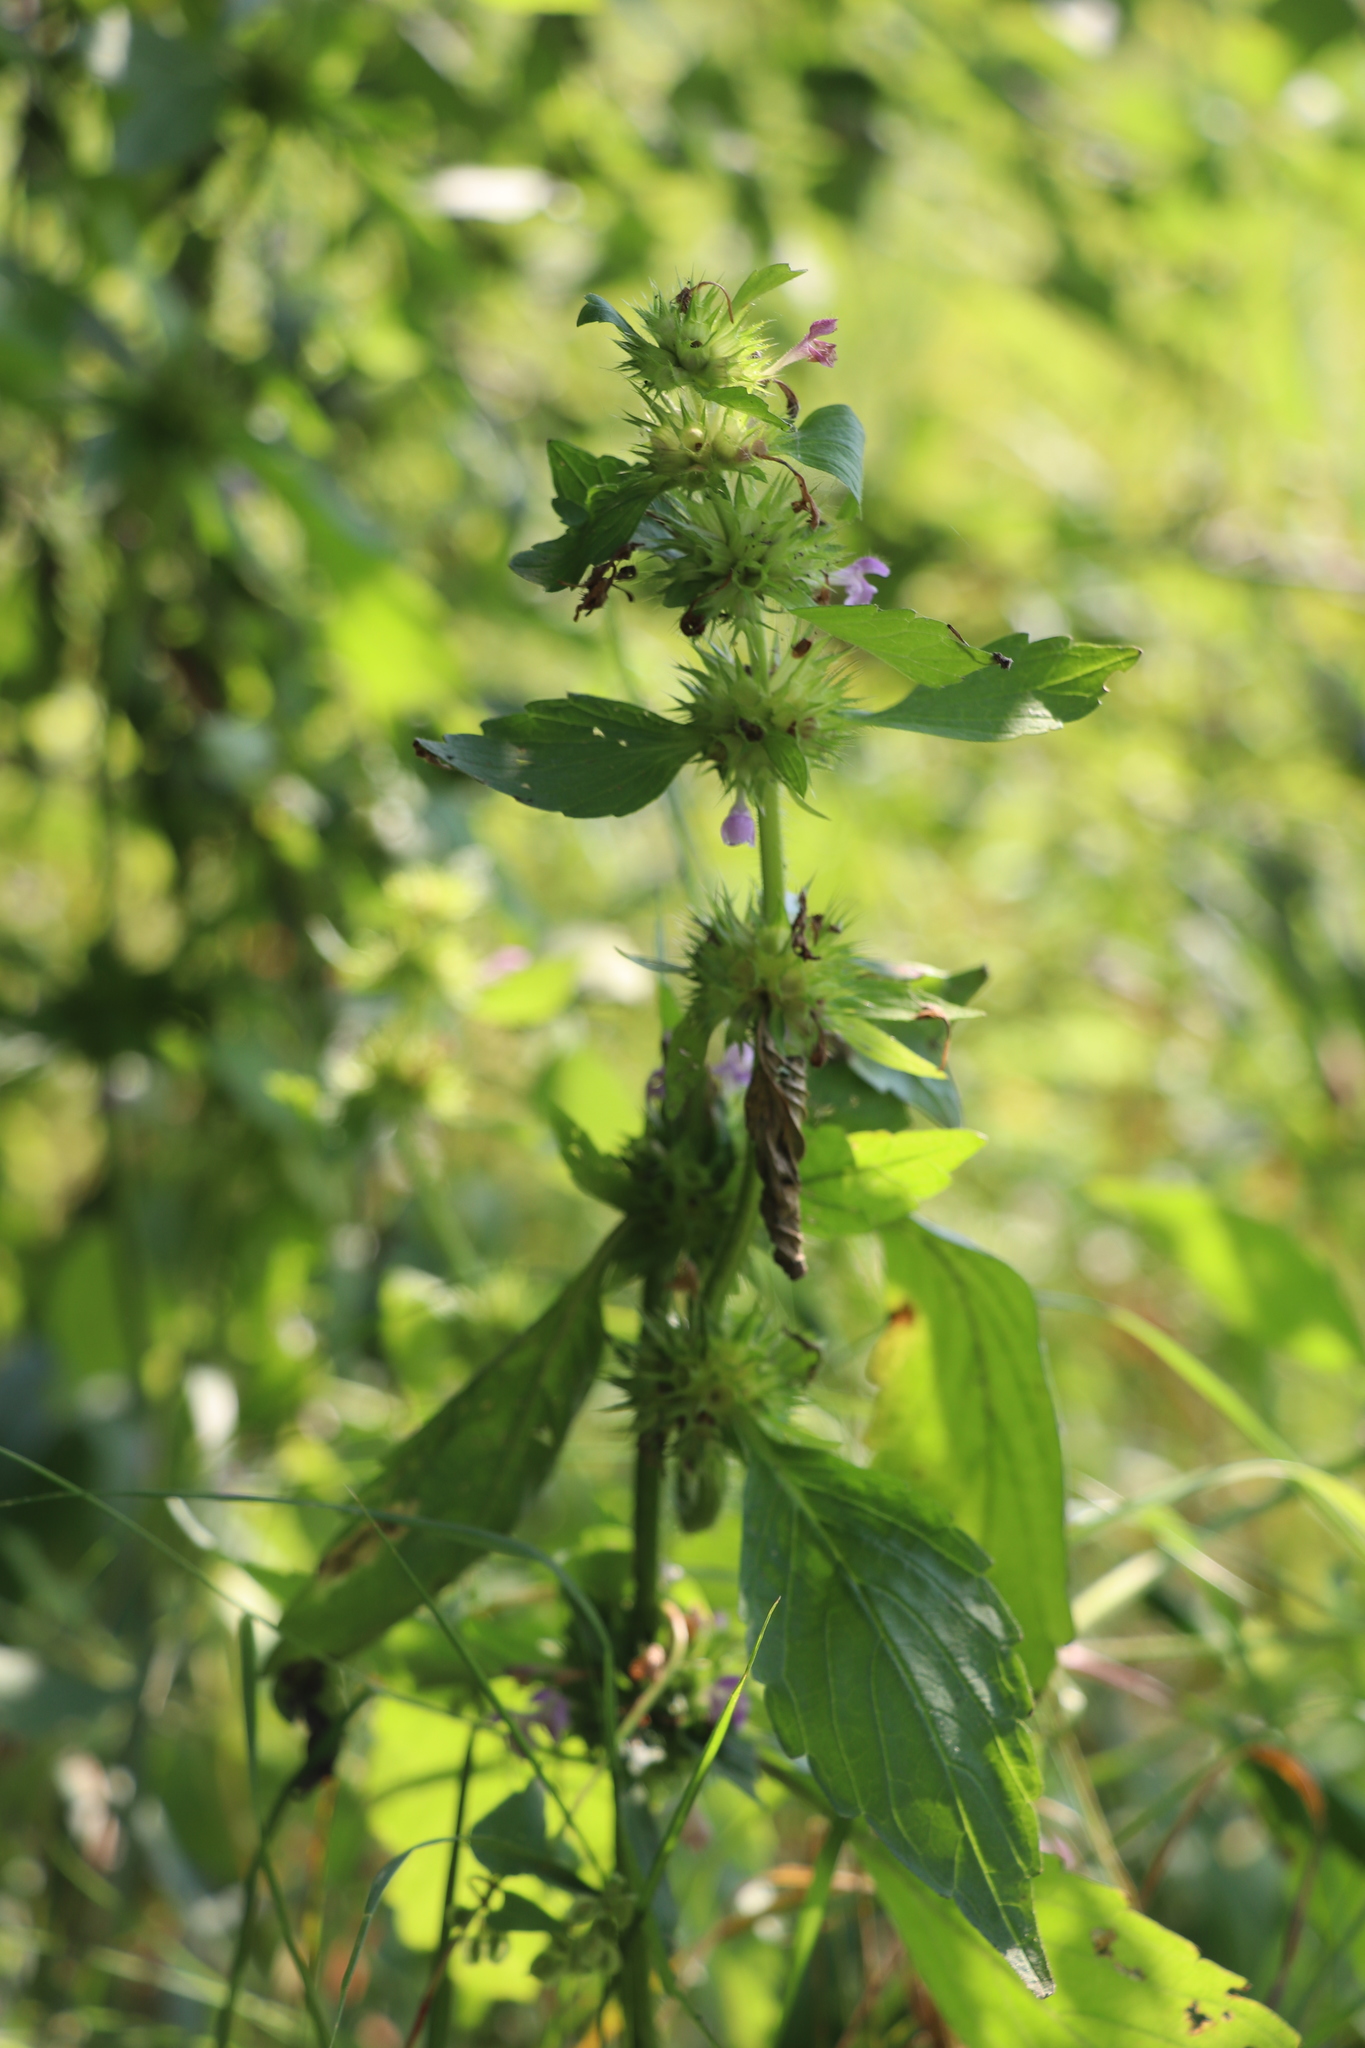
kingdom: Plantae
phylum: Tracheophyta
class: Magnoliopsida
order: Lamiales
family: Lamiaceae
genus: Galeopsis
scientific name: Galeopsis bifida
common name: Bifid hemp-nettle
